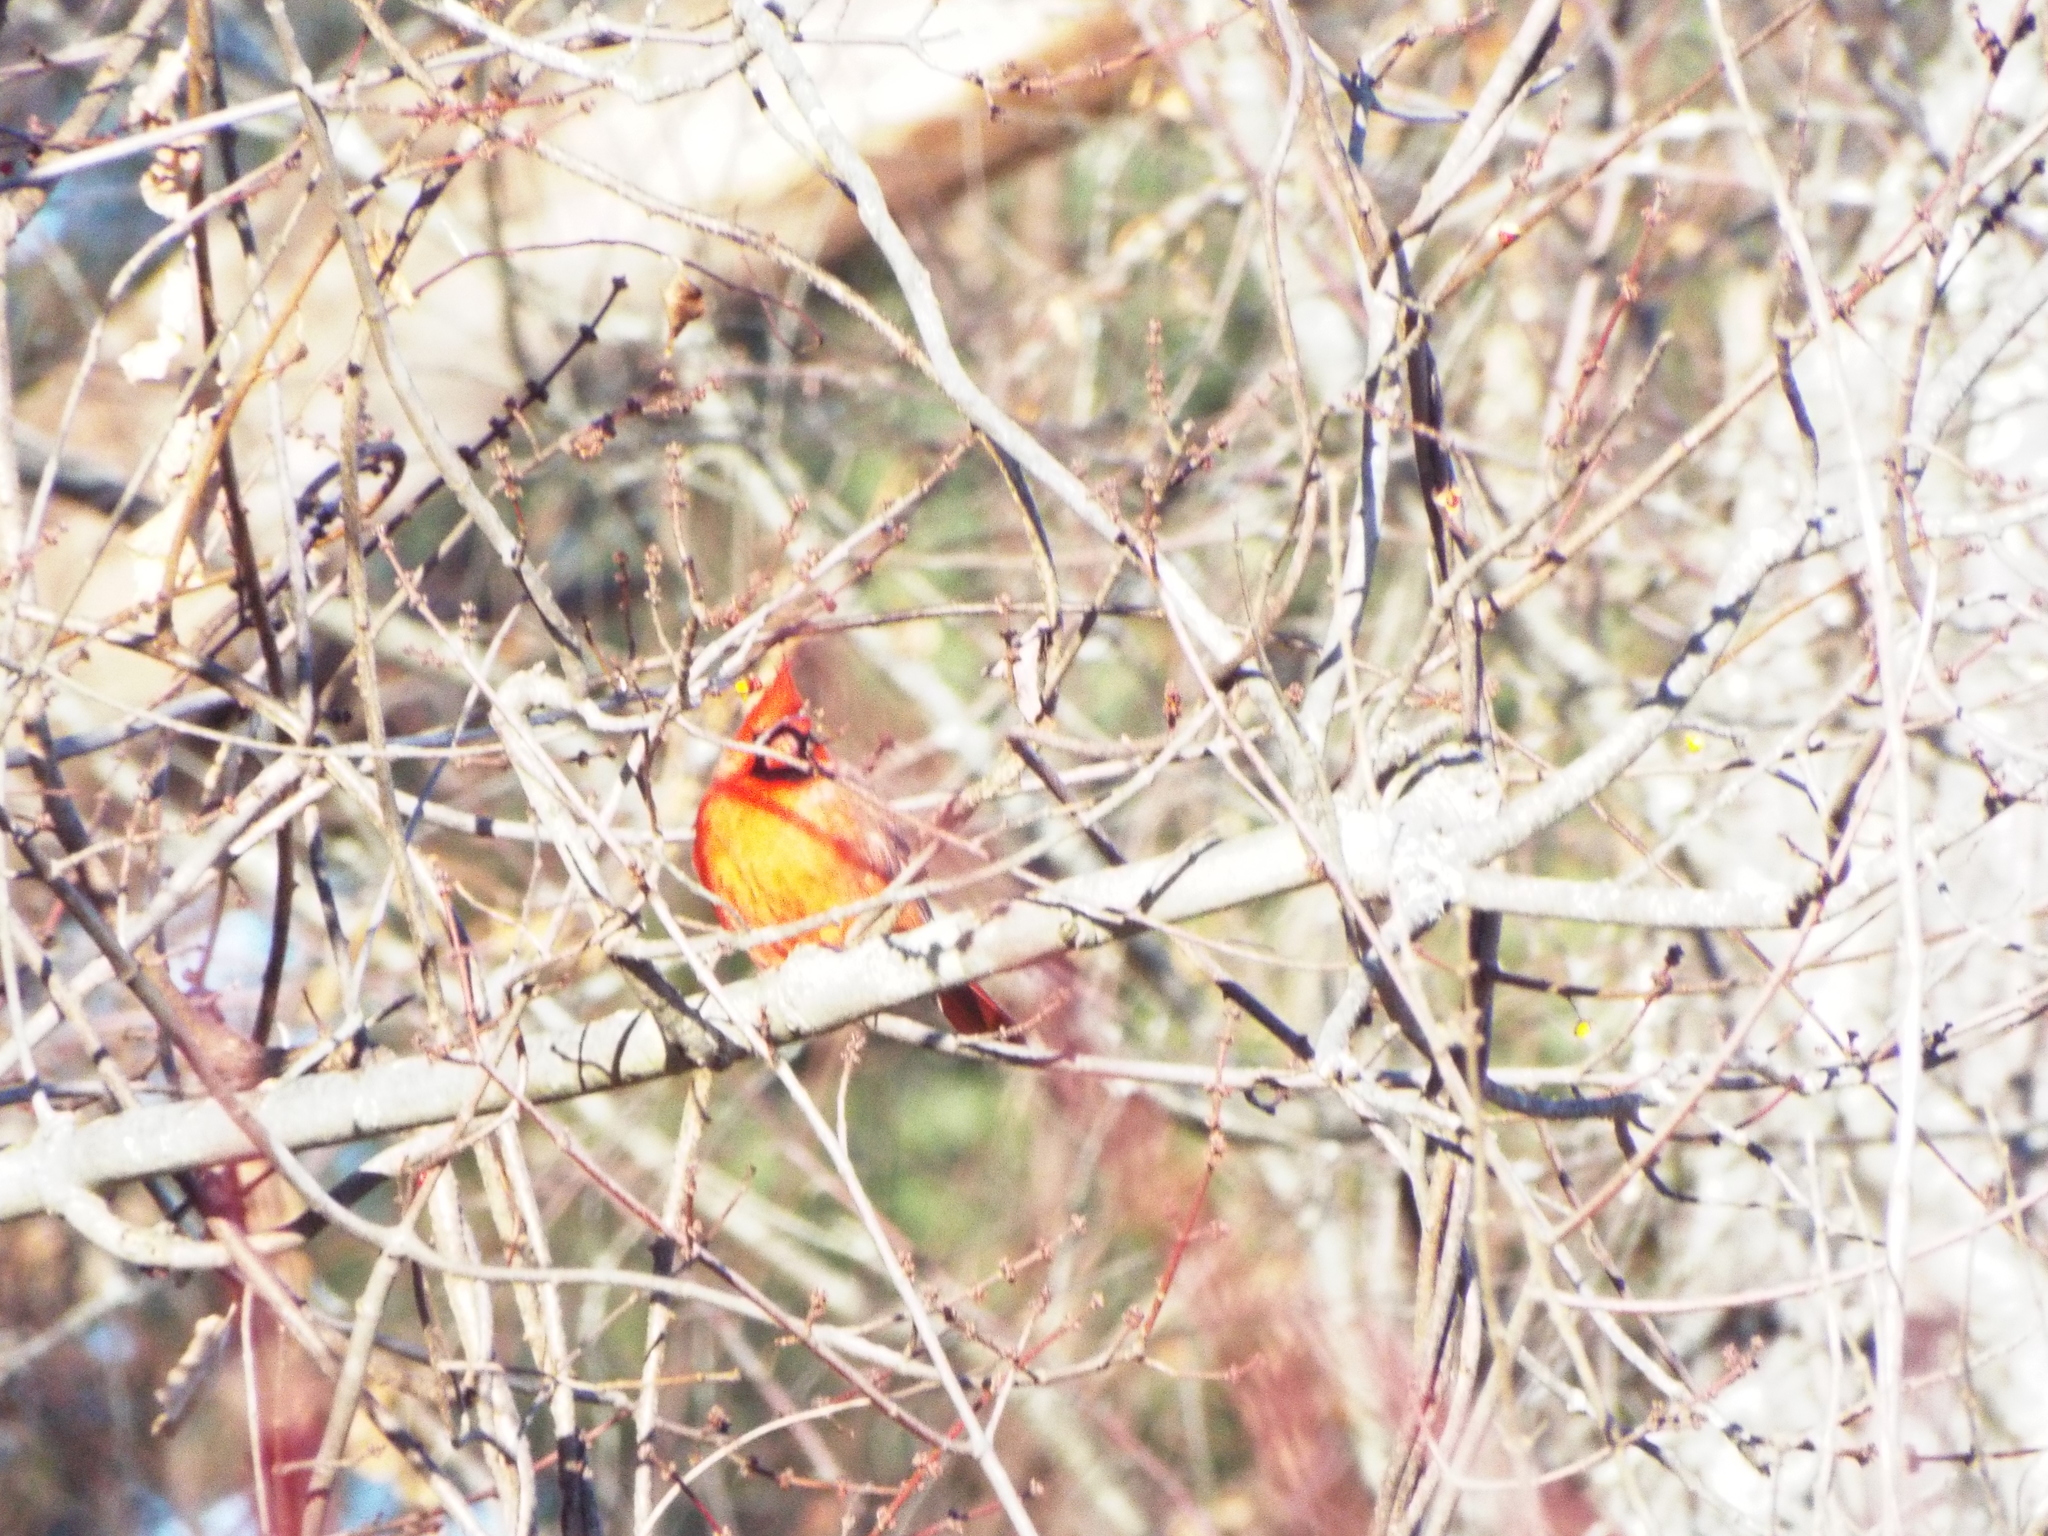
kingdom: Animalia
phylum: Chordata
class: Aves
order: Passeriformes
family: Cardinalidae
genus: Cardinalis
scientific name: Cardinalis cardinalis
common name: Northern cardinal
